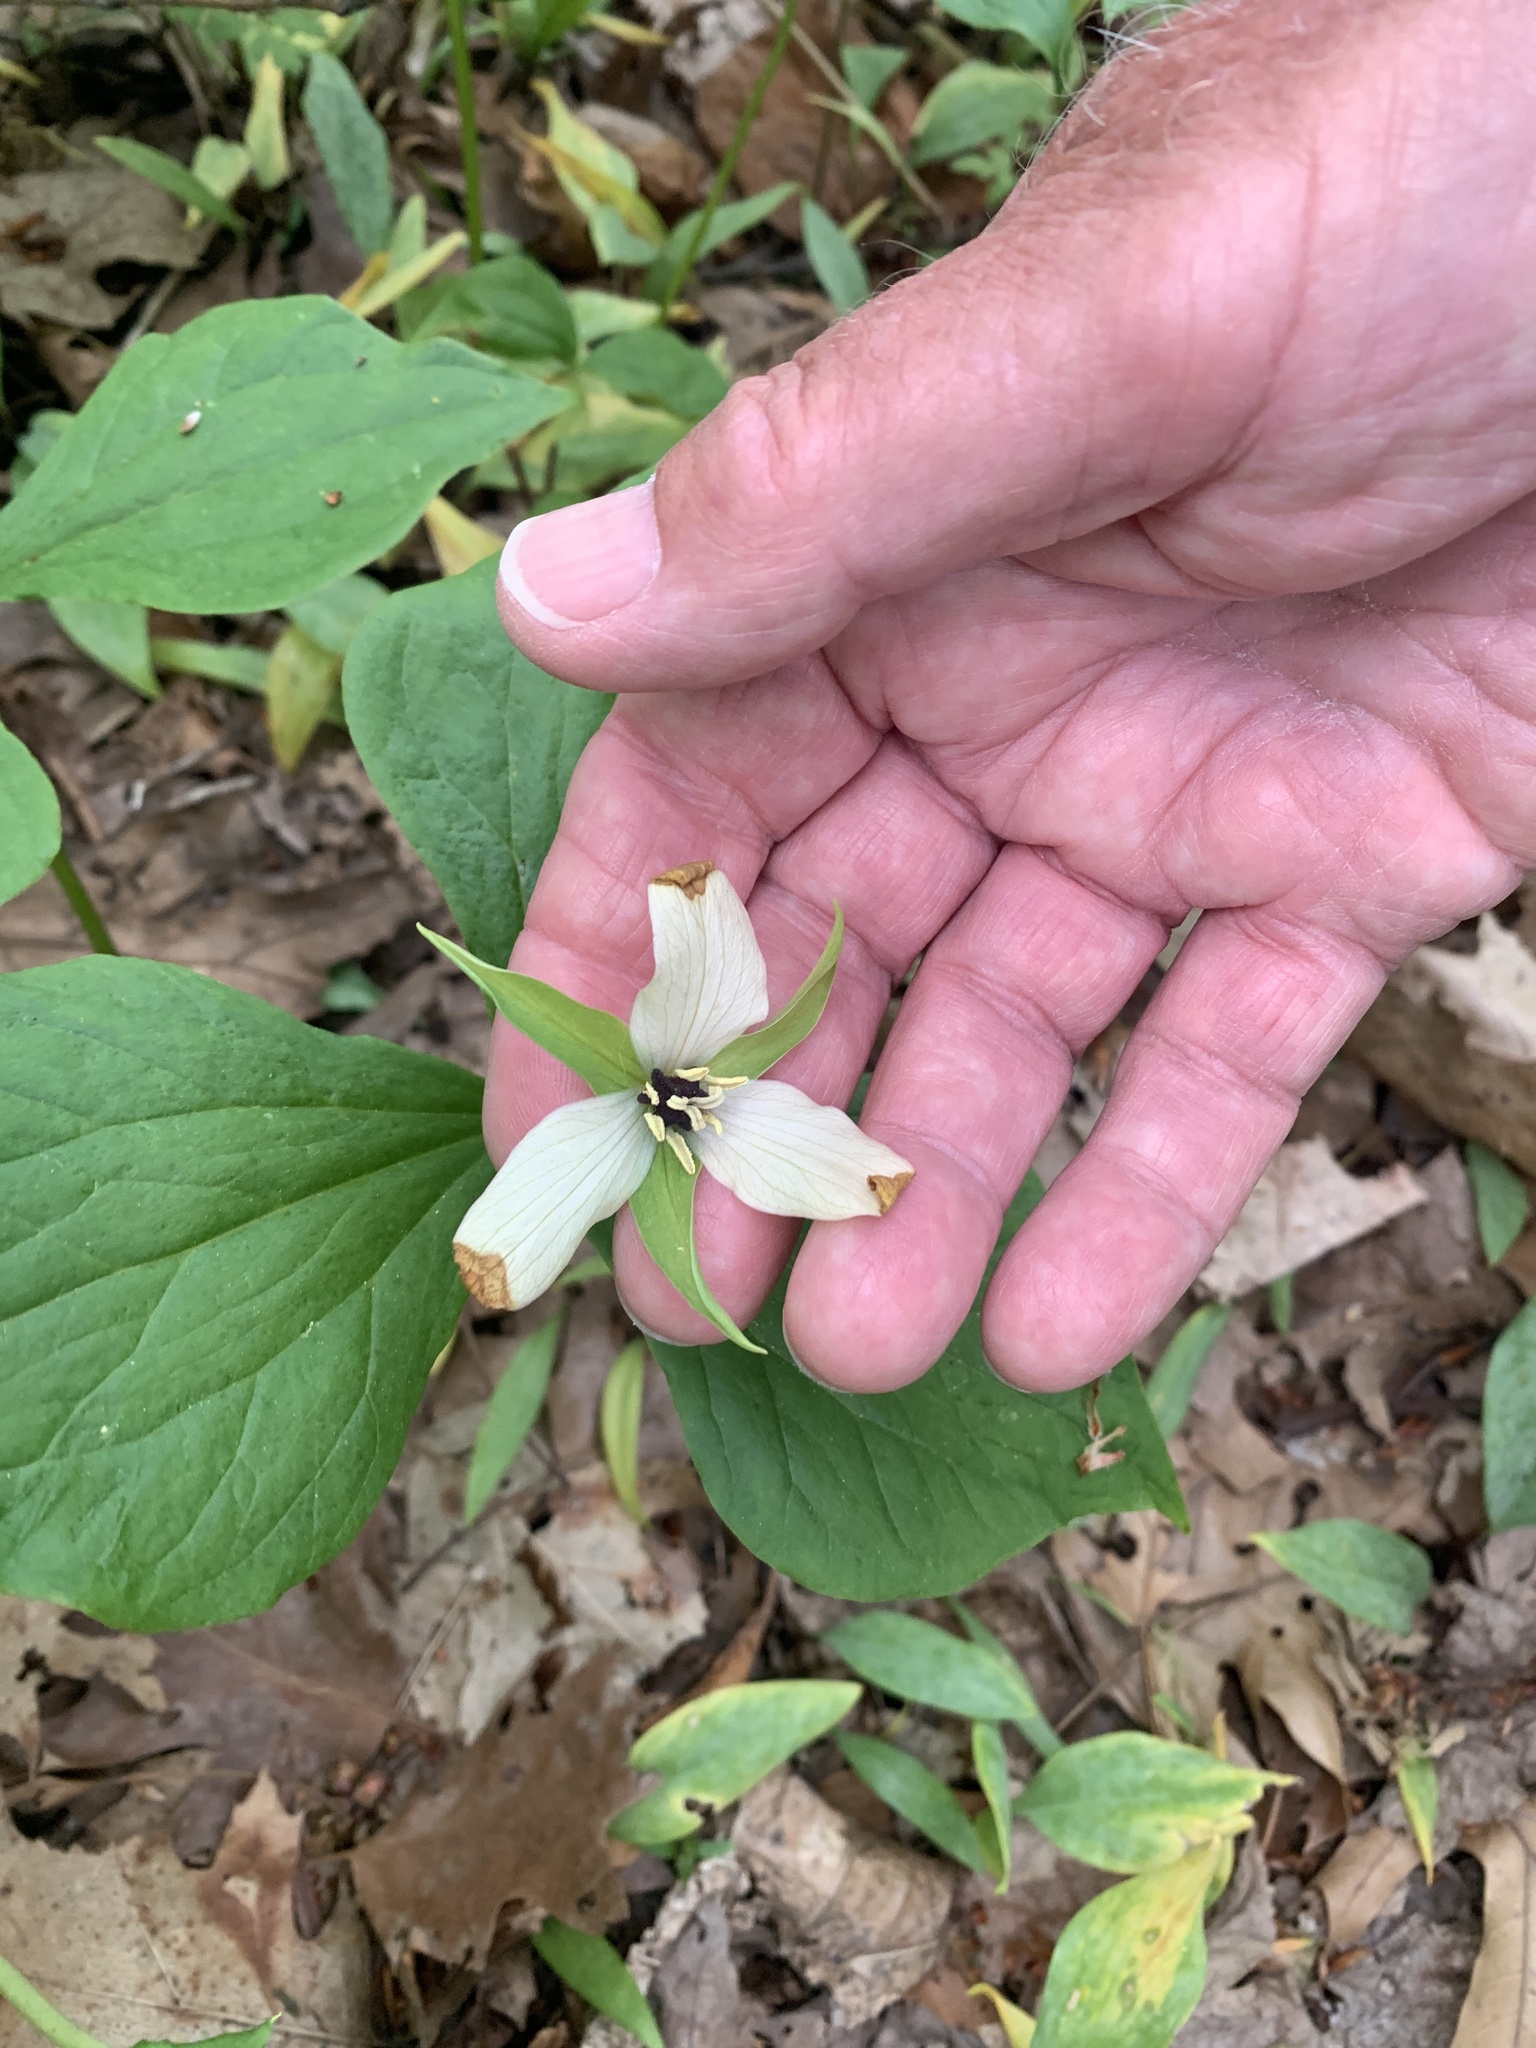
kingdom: Plantae
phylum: Tracheophyta
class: Liliopsida
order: Liliales
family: Melanthiaceae
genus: Trillium
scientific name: Trillium erectum
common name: Purple trillium
